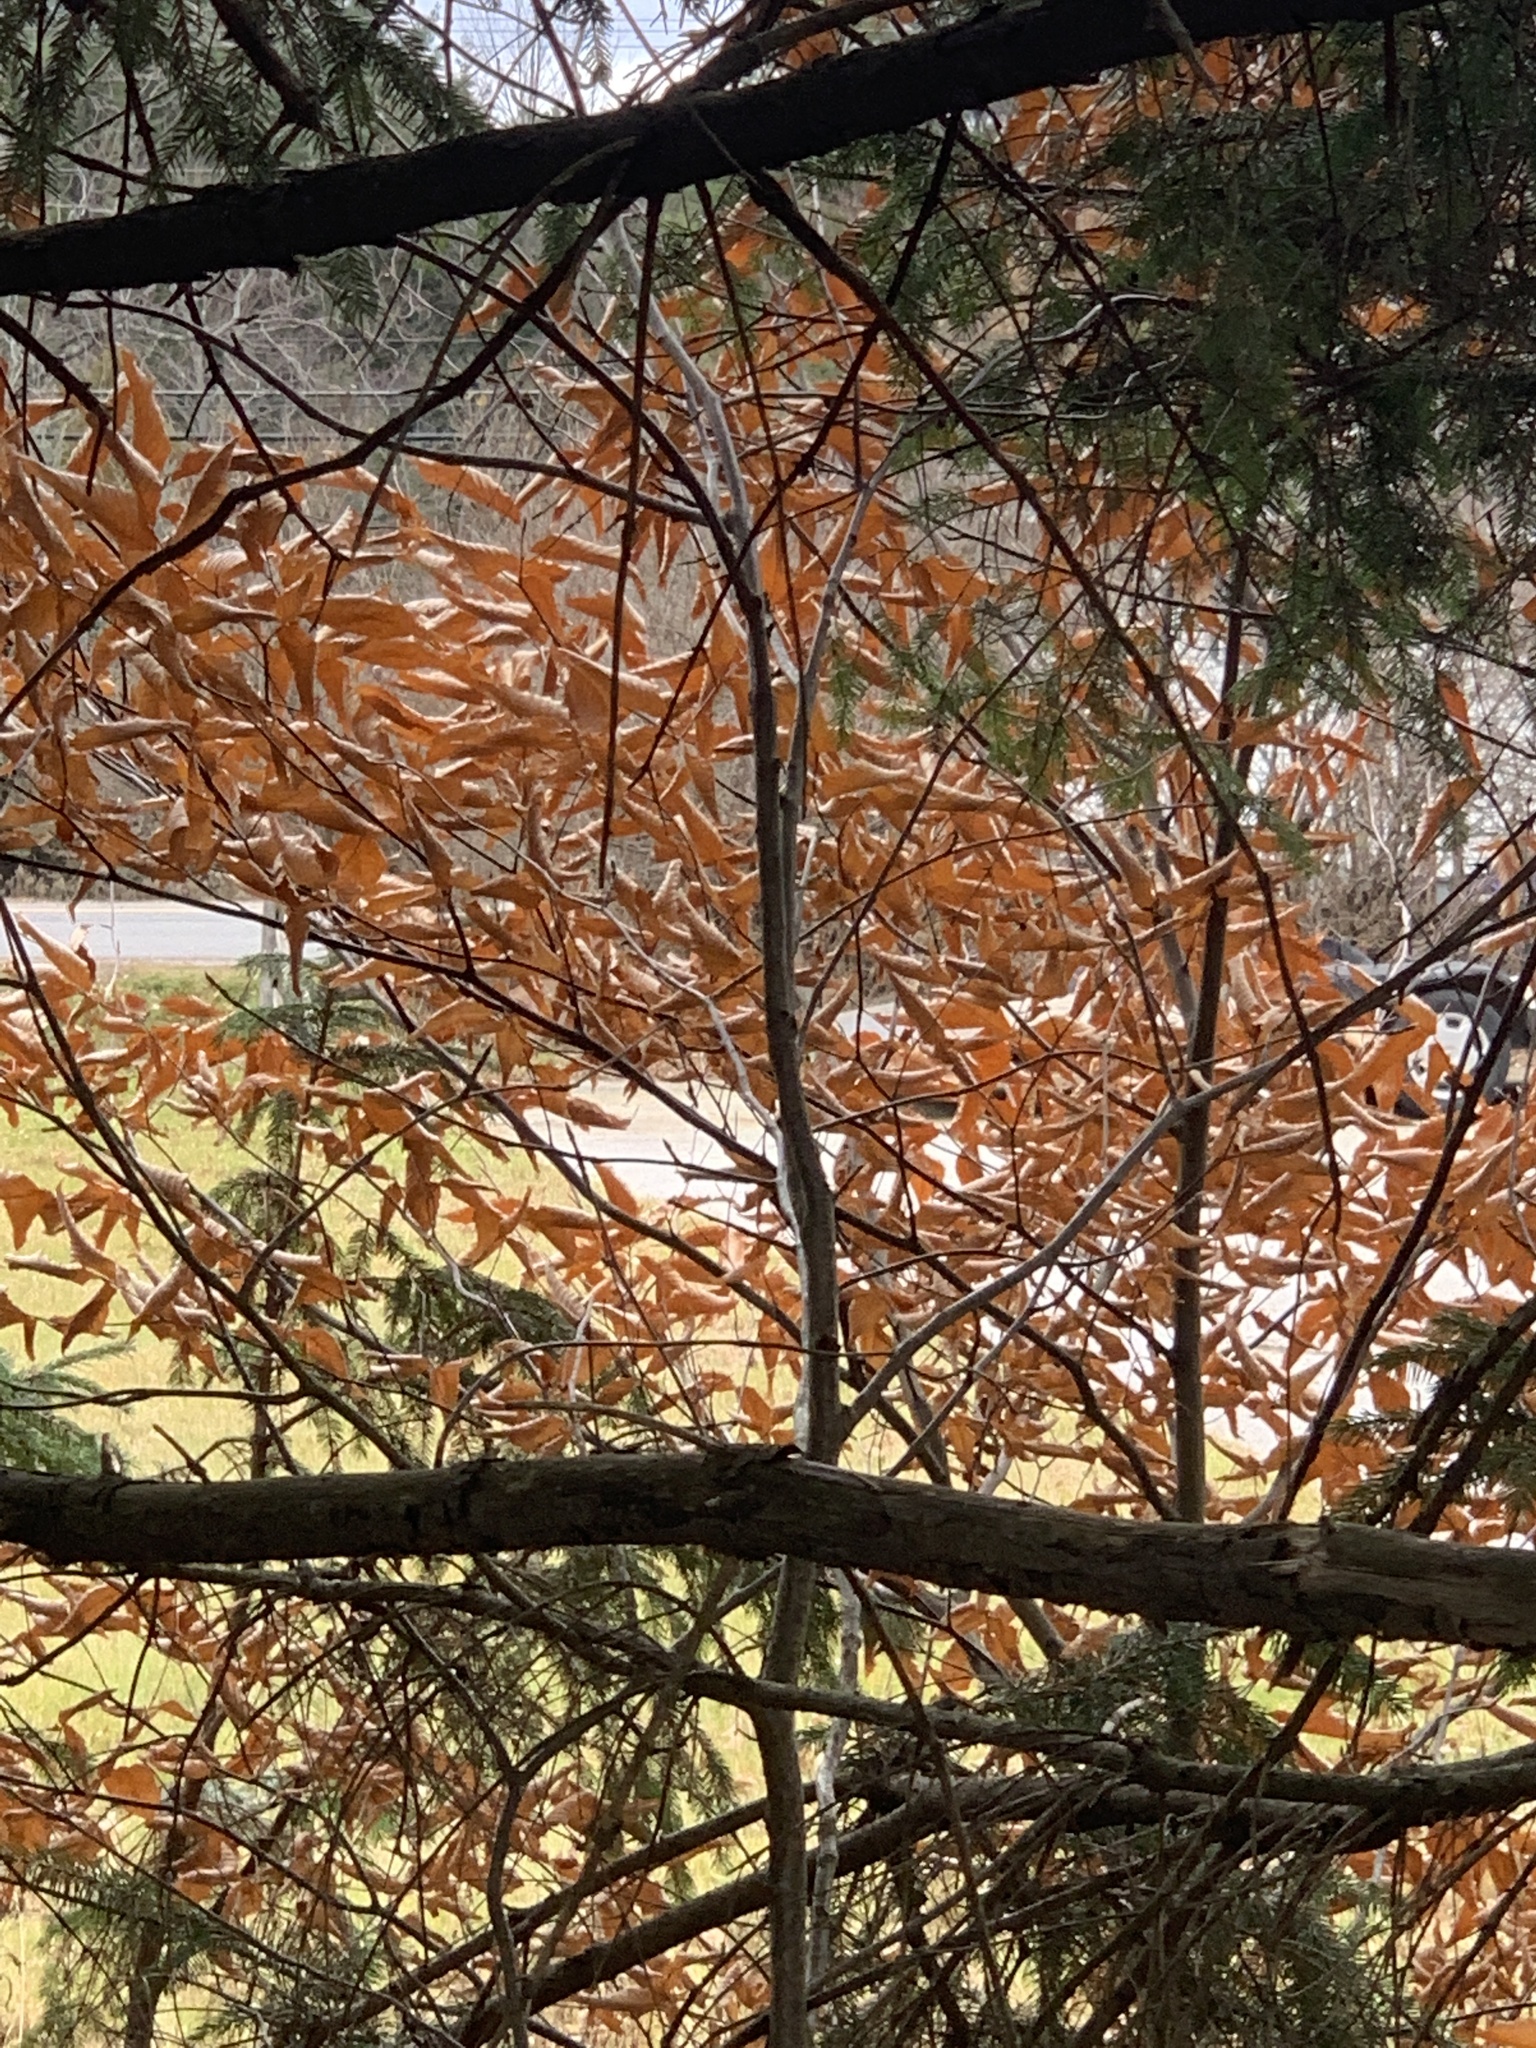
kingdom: Plantae
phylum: Tracheophyta
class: Magnoliopsida
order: Fagales
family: Fagaceae
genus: Fagus
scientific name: Fagus grandifolia
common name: American beech
